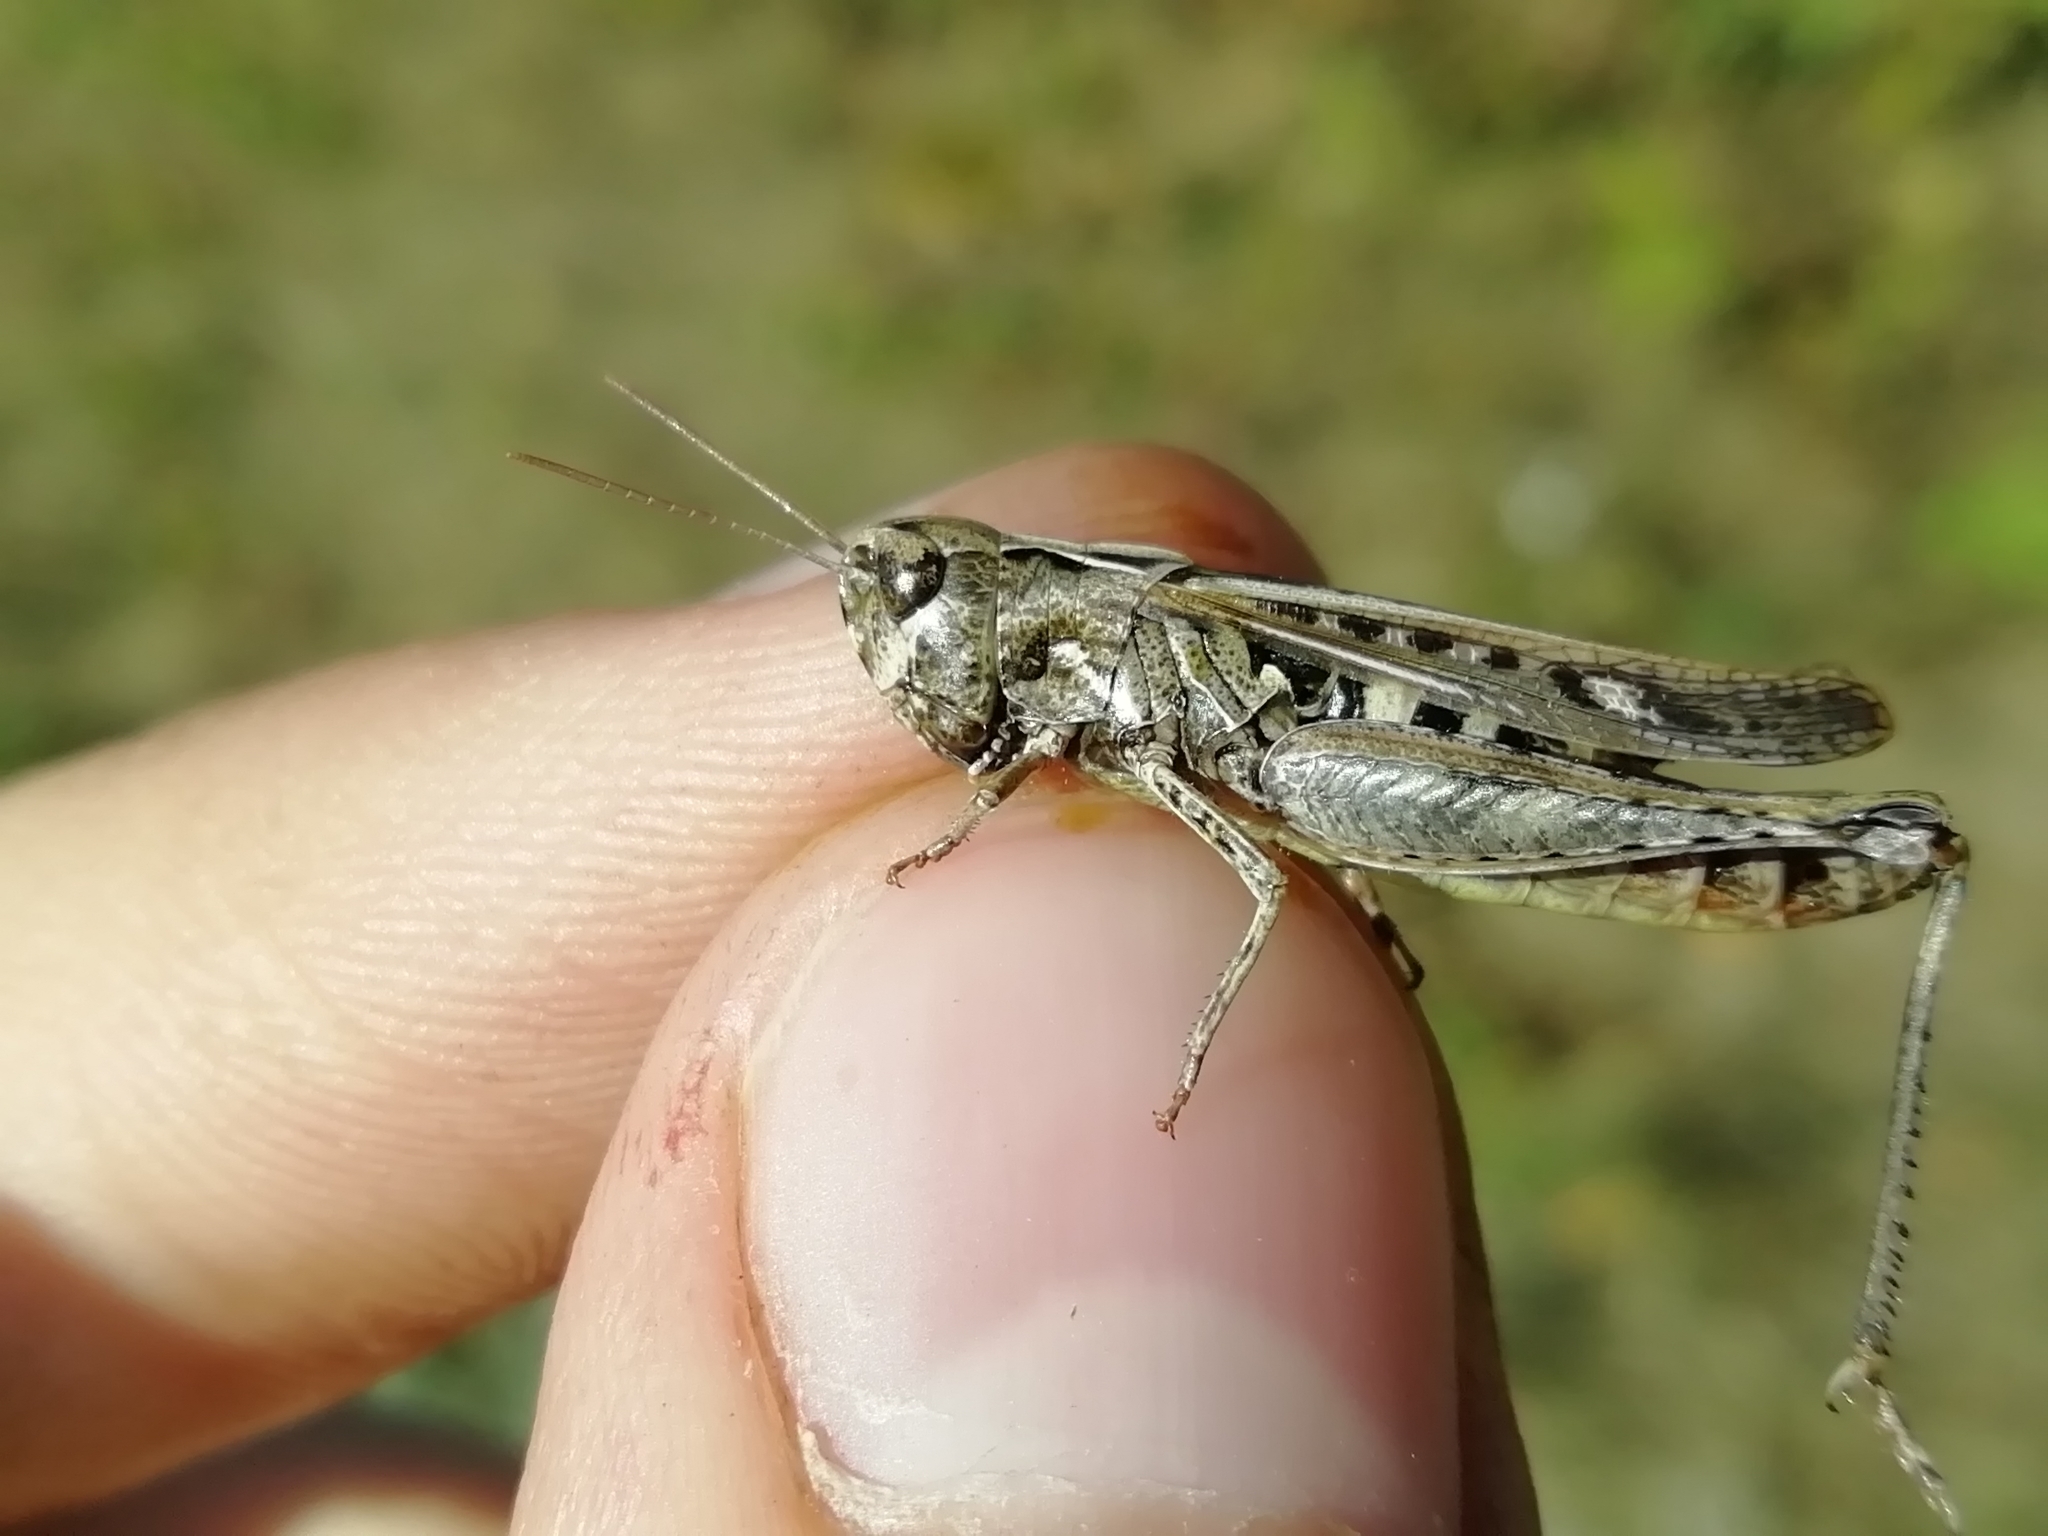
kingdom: Animalia
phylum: Arthropoda
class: Insecta
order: Orthoptera
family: Acrididae
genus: Omocestus
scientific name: Omocestus haemorrhoidalis
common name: Orange-tipped grasshopper
